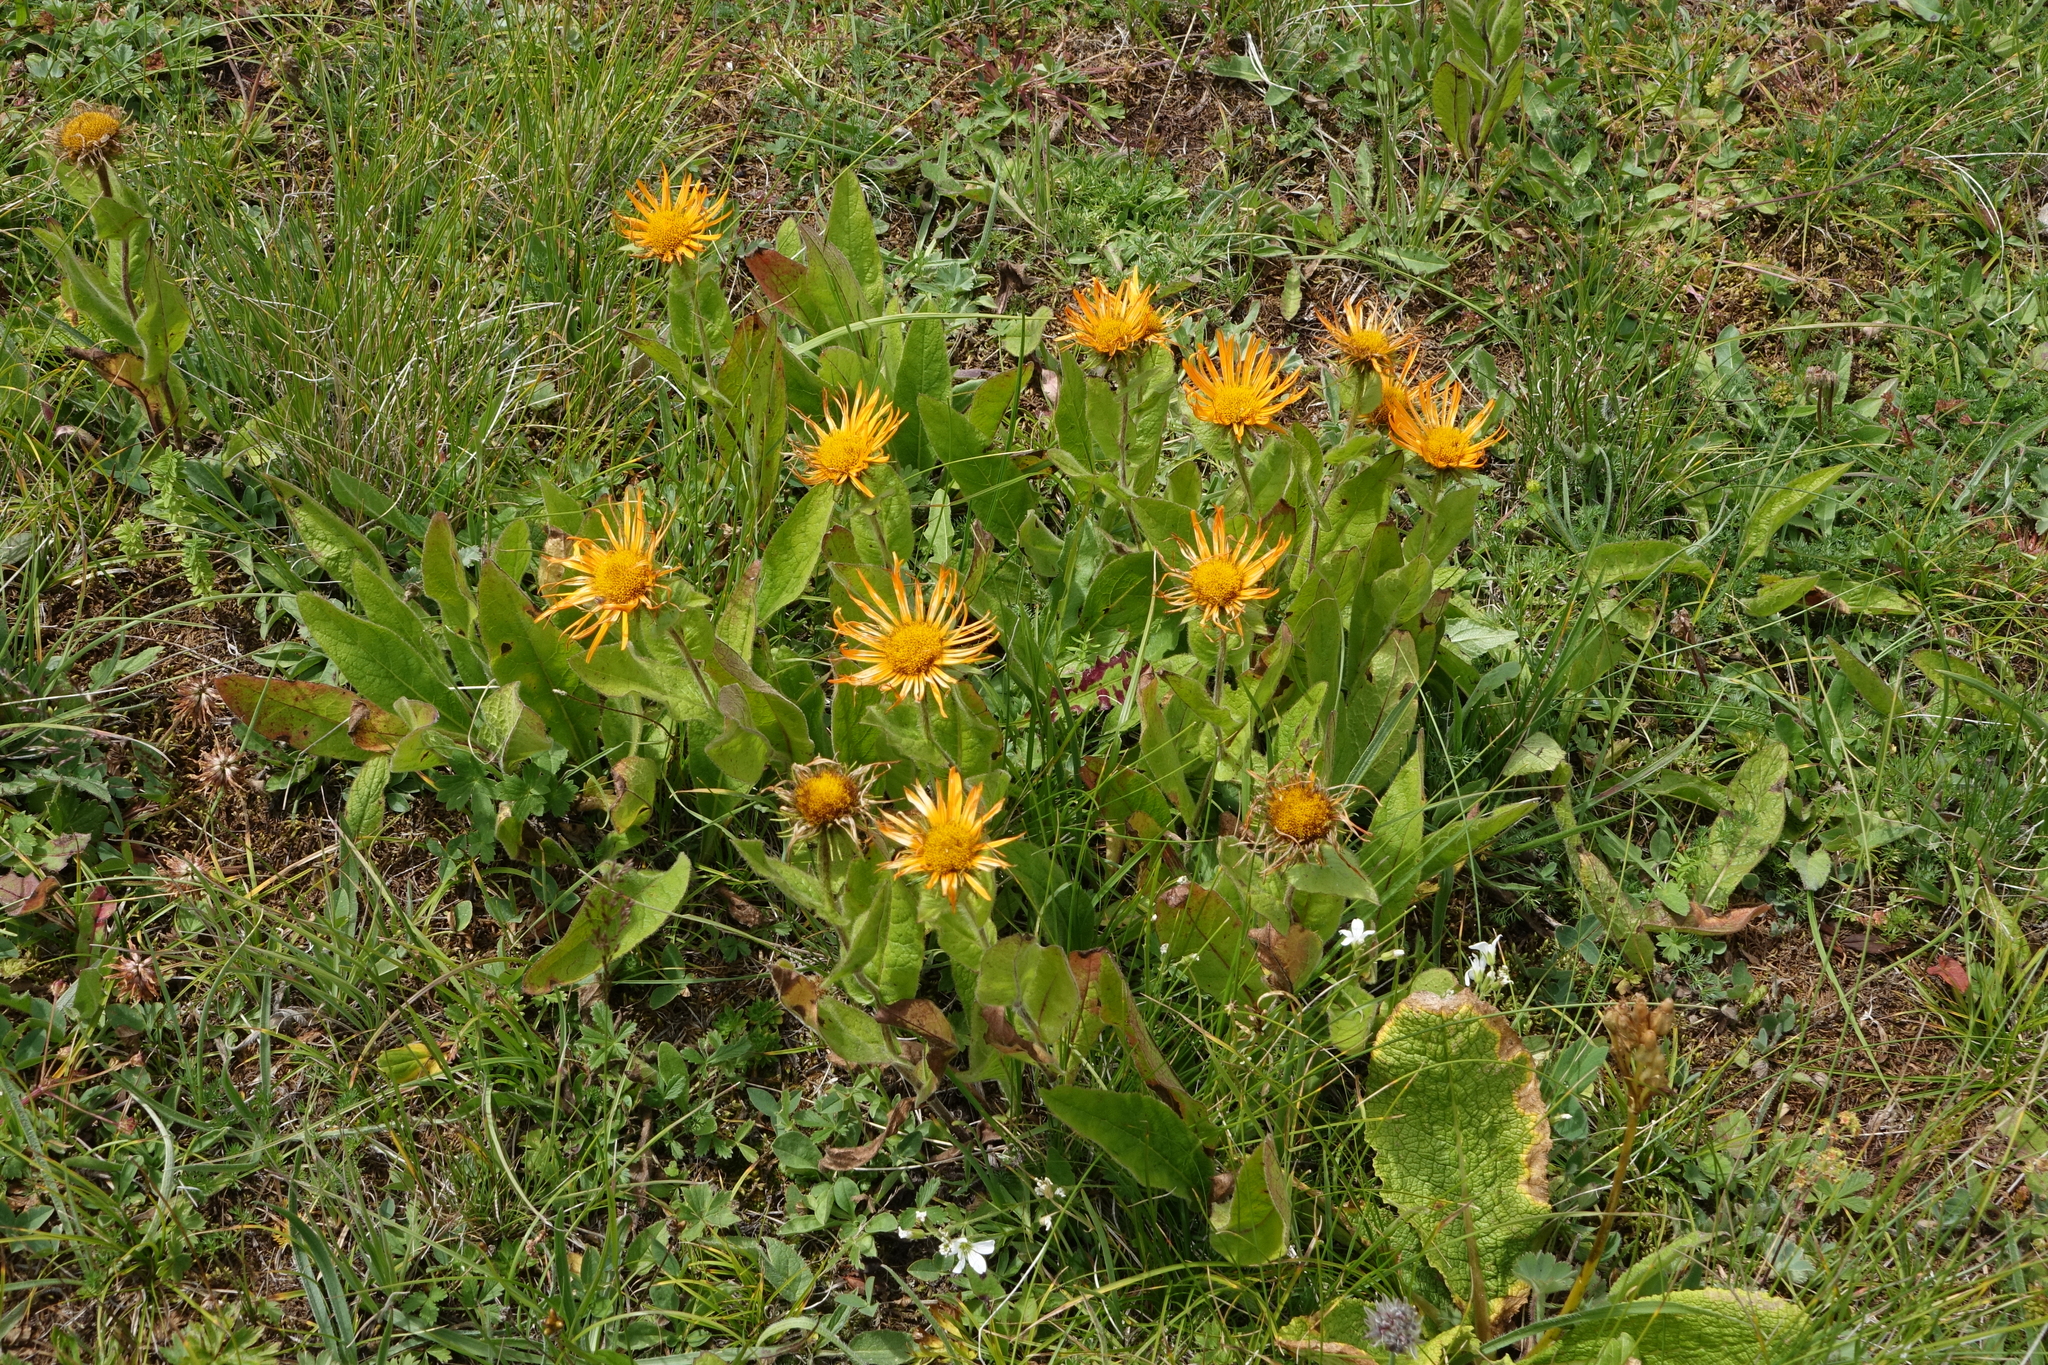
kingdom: Plantae
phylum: Tracheophyta
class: Magnoliopsida
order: Asterales
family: Asteraceae
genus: Pentanema
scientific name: Pentanema orientale
